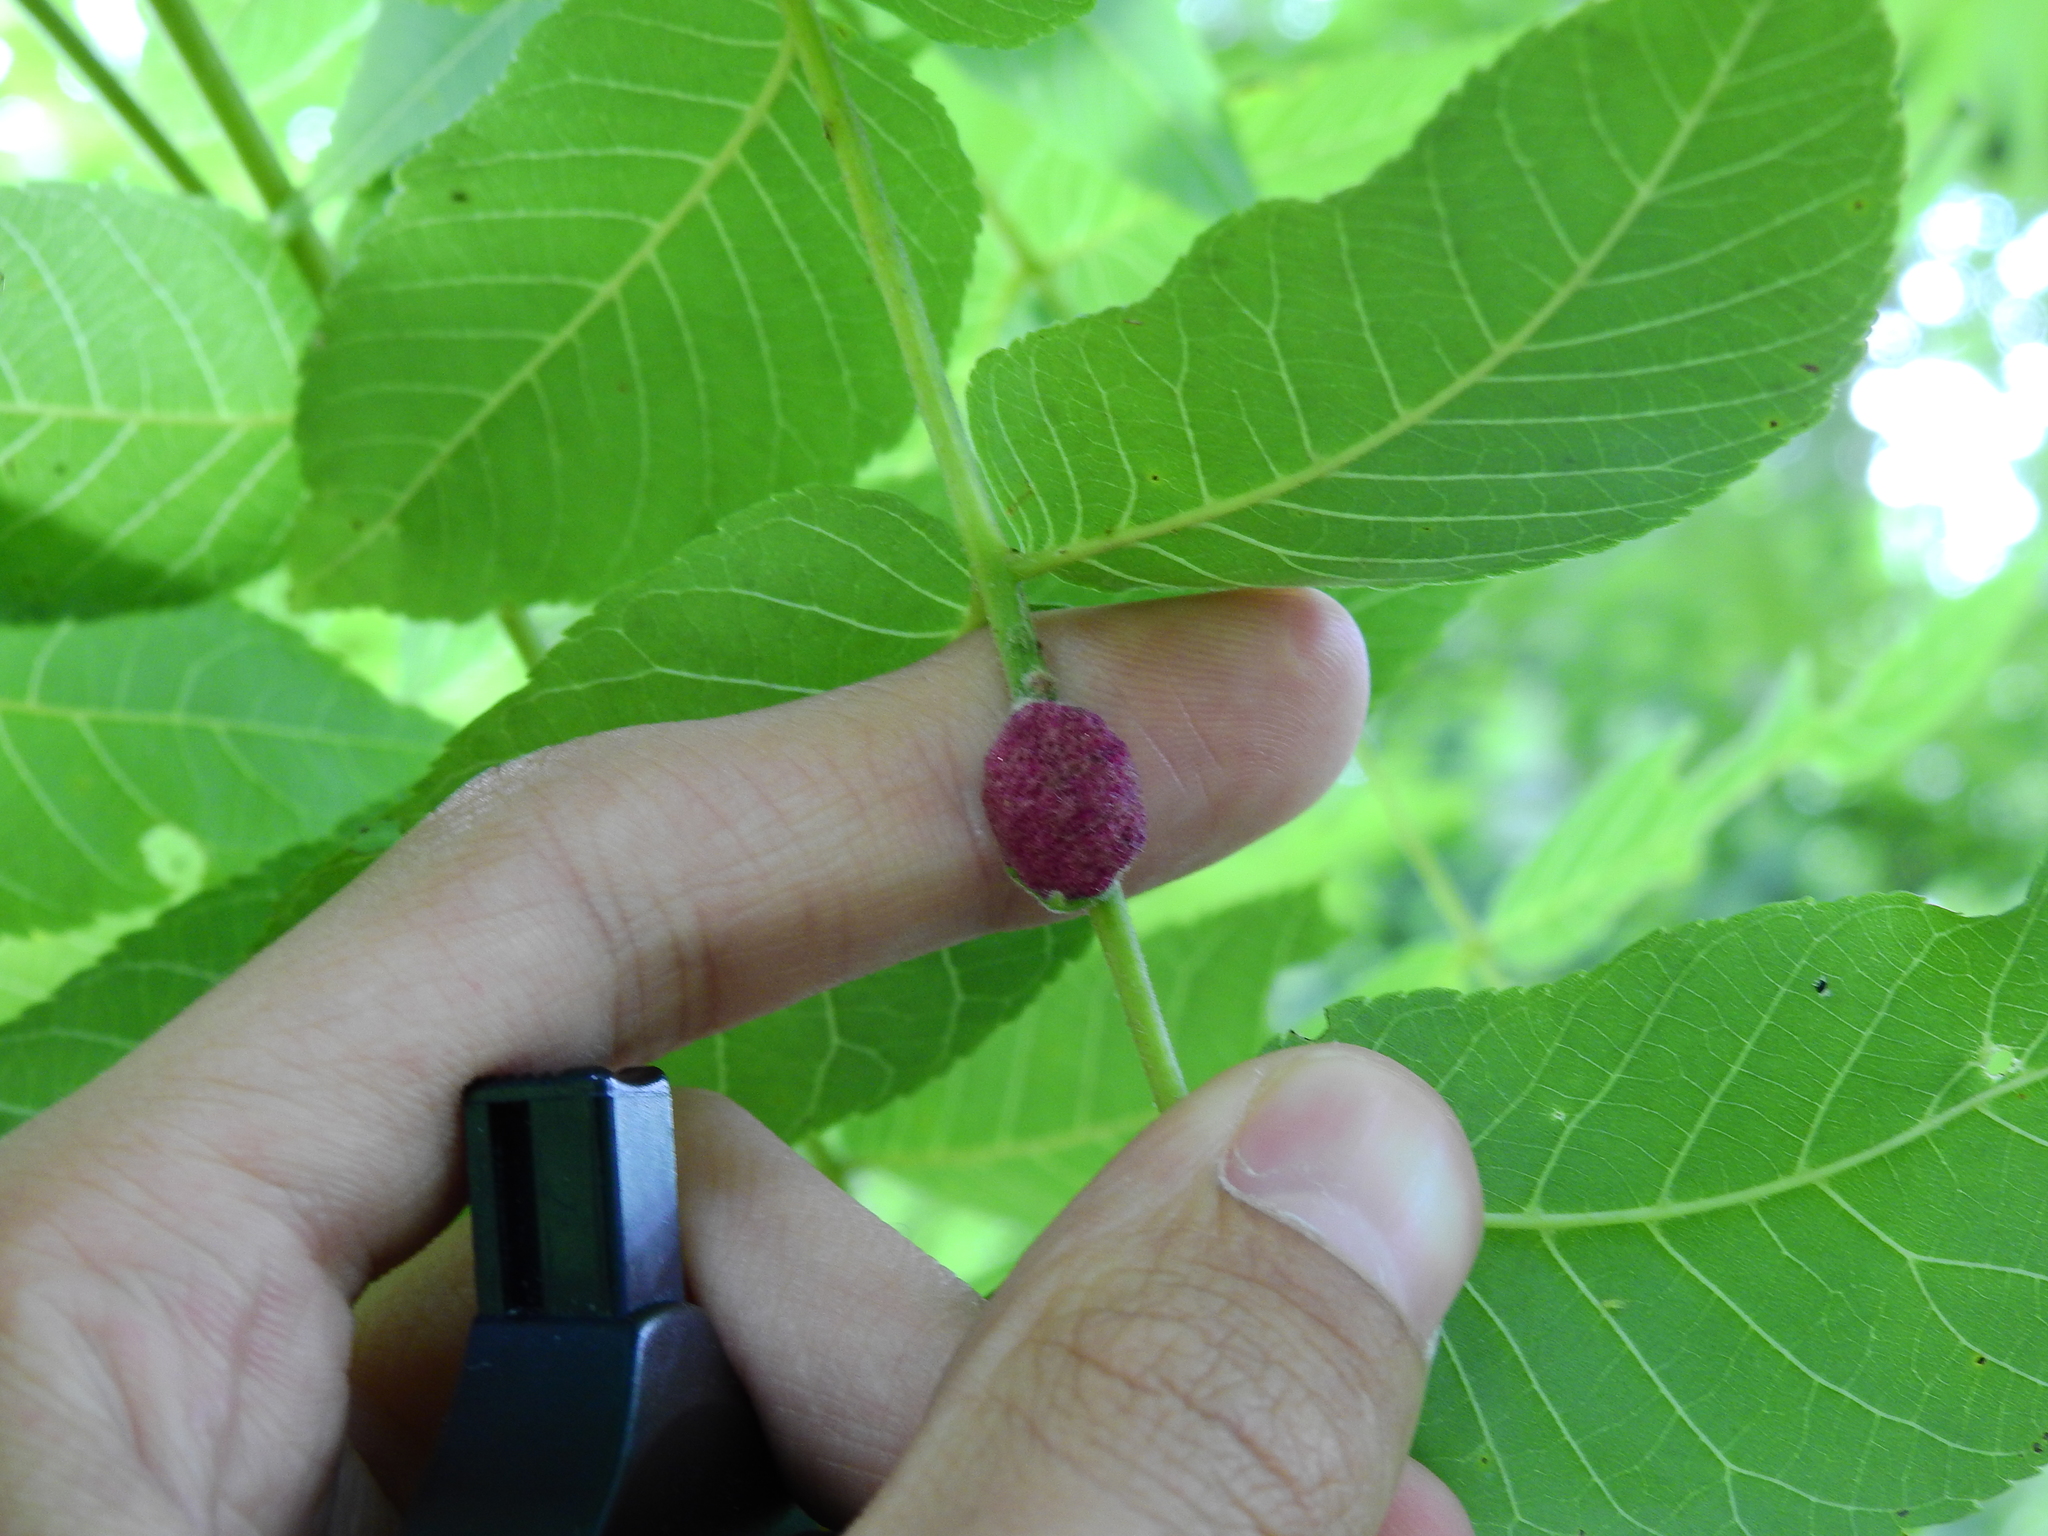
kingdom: Animalia
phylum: Arthropoda
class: Arachnida
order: Trombidiformes
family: Eriophyidae
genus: Aceria
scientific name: Aceria
